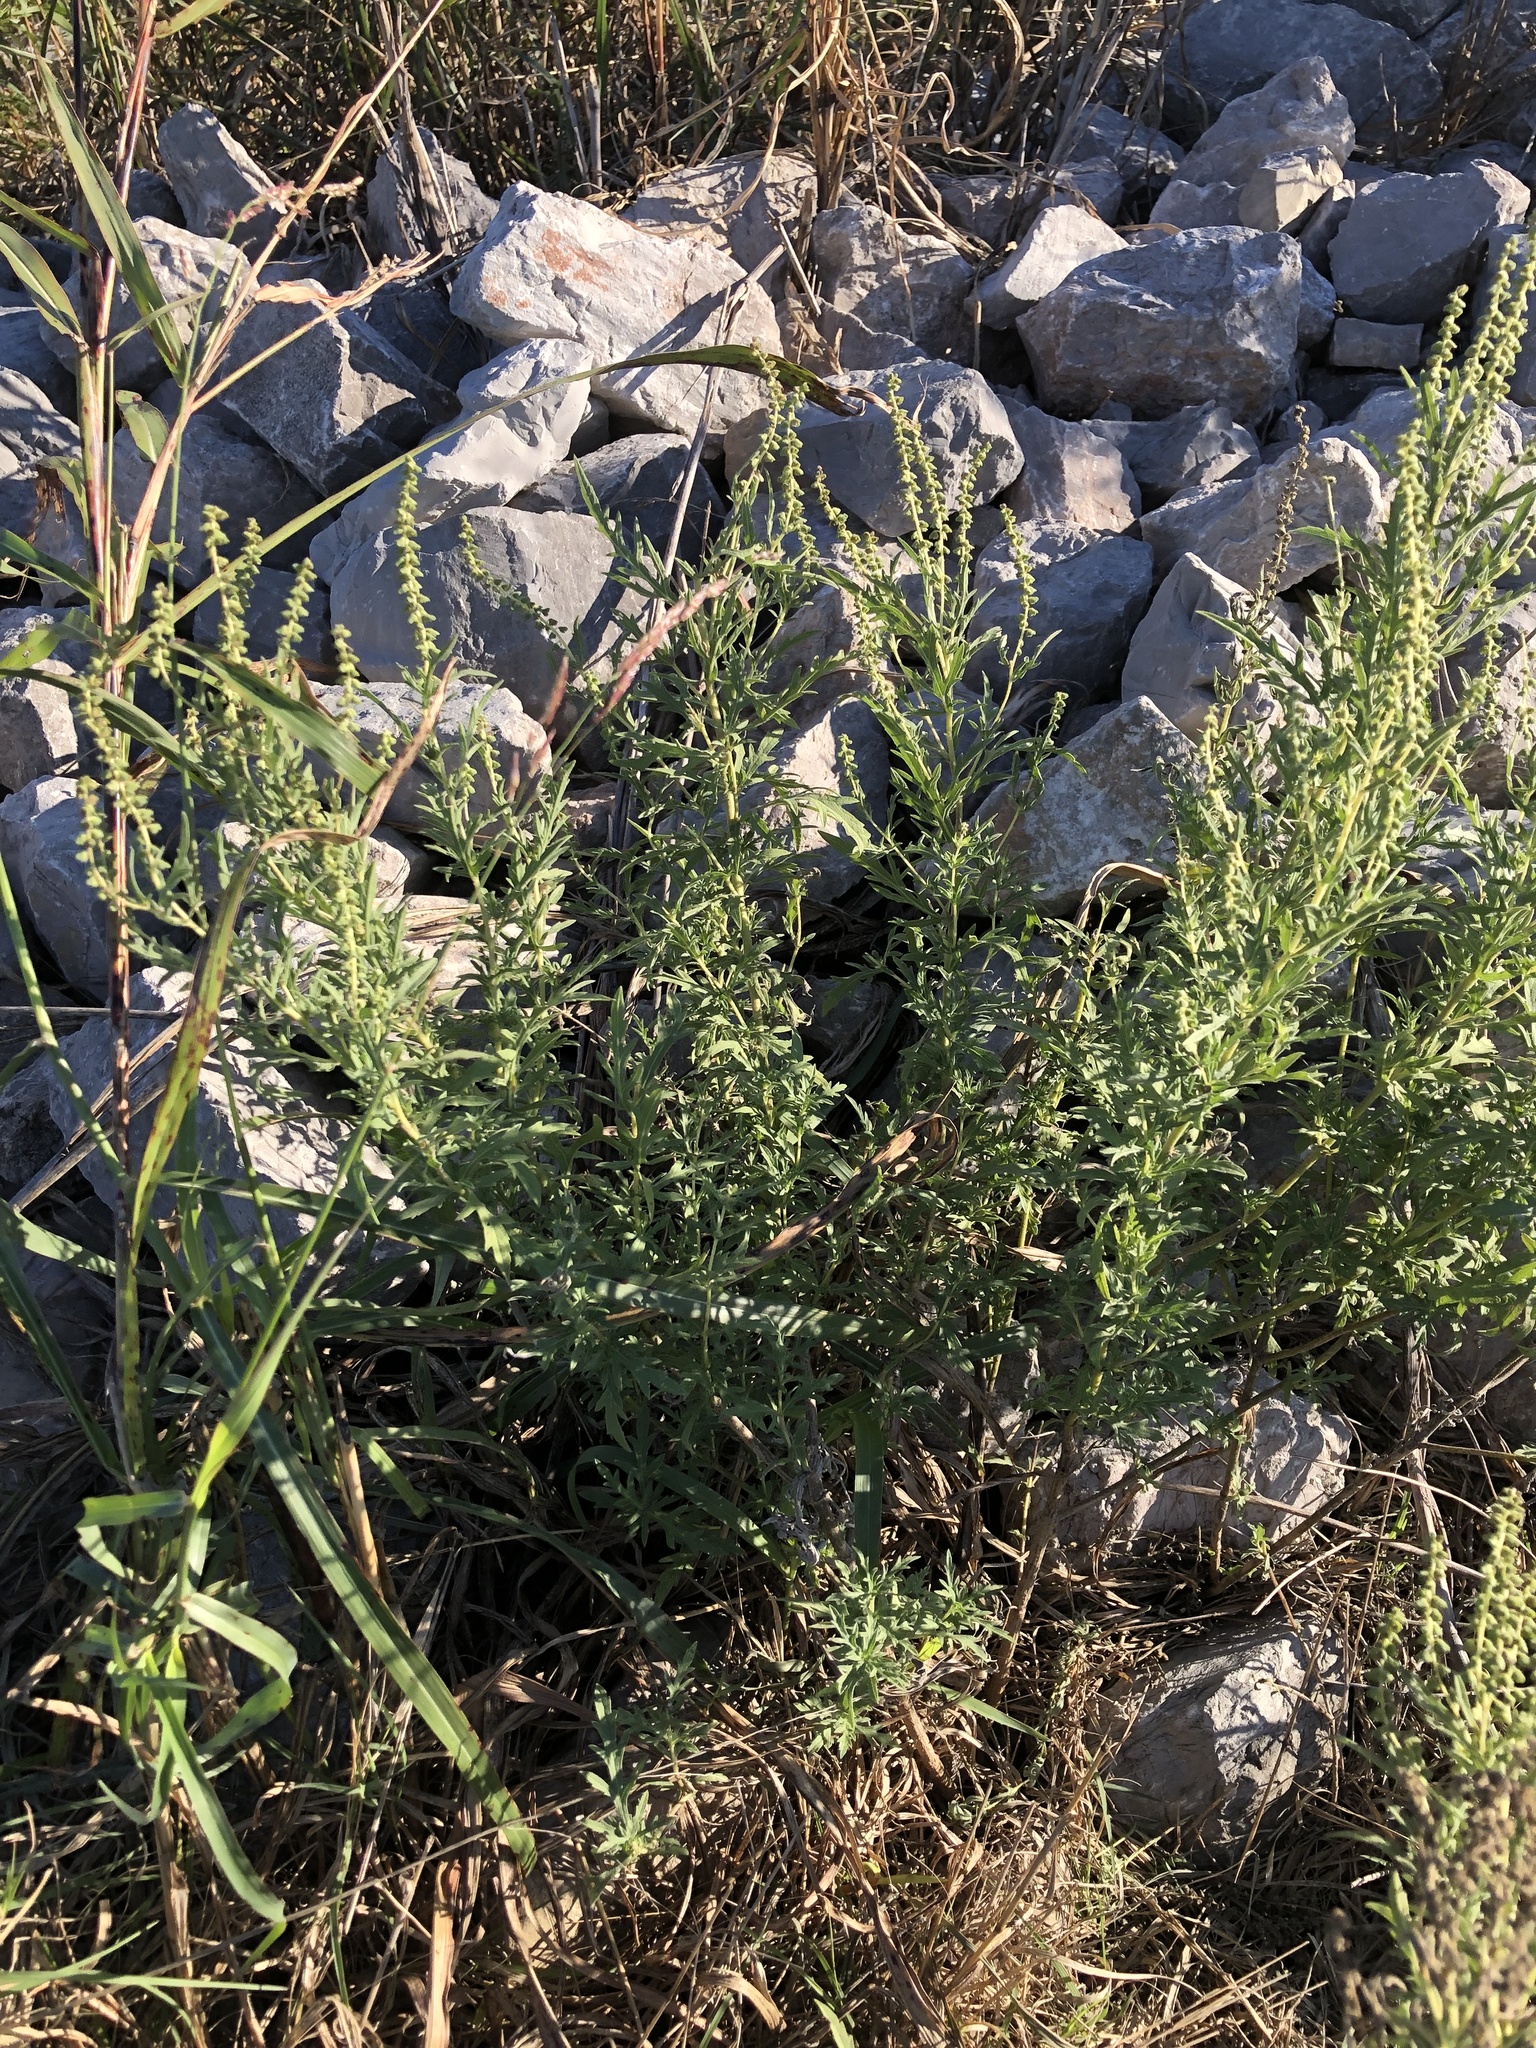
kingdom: Plantae
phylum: Tracheophyta
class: Magnoliopsida
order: Asterales
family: Asteraceae
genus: Ambrosia
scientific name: Ambrosia psilostachya
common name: Perennial ragweed
